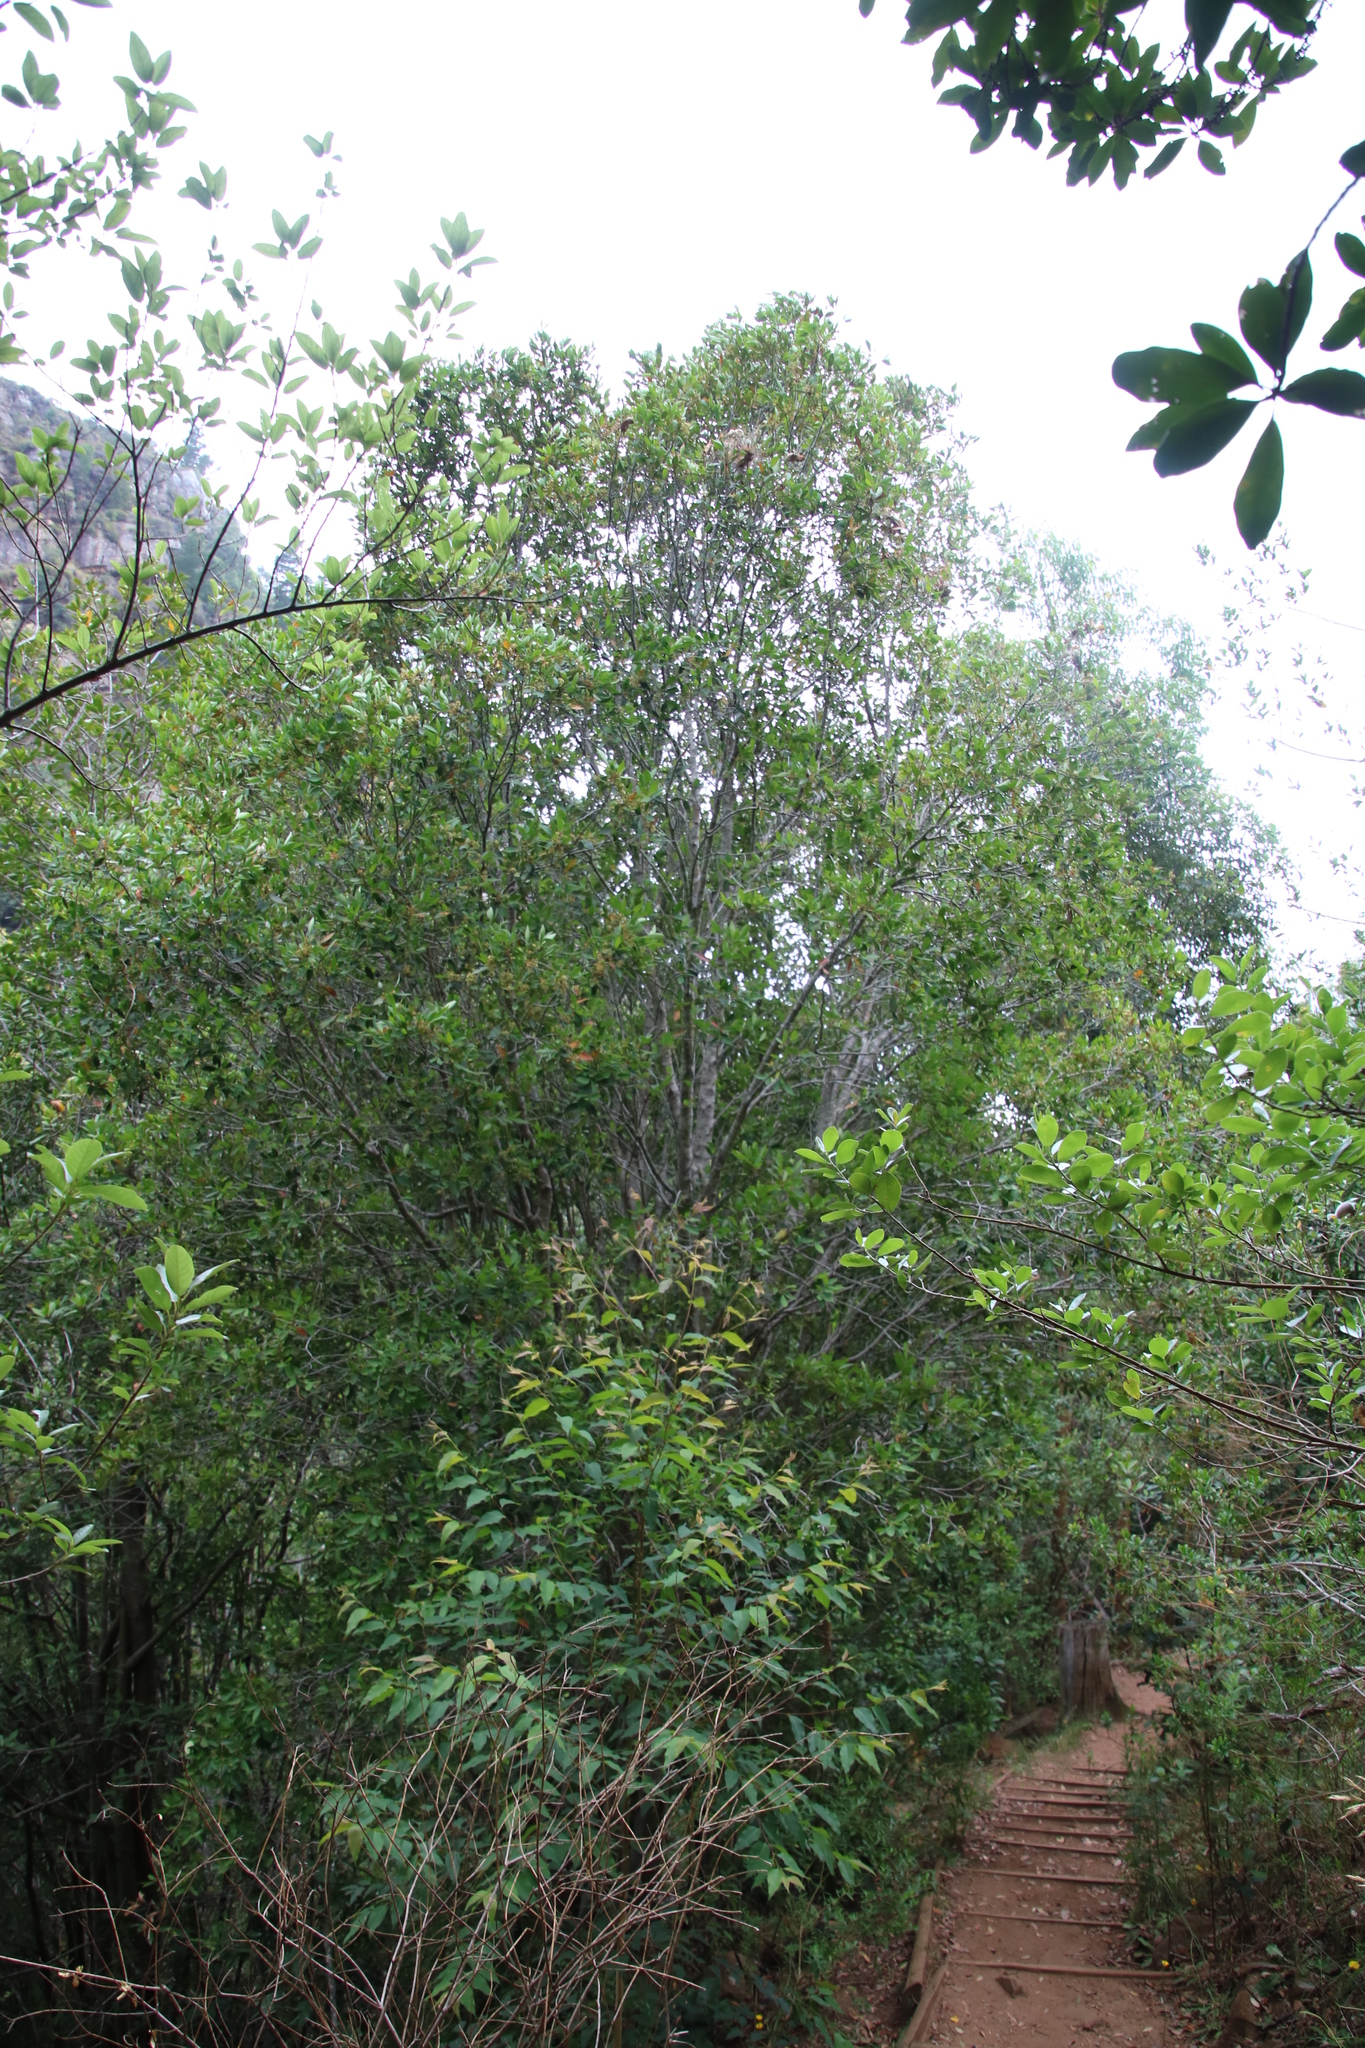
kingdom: Plantae
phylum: Tracheophyta
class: Magnoliopsida
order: Celastrales
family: Celastraceae
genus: Elaeodendron
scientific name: Elaeodendron schinoides
